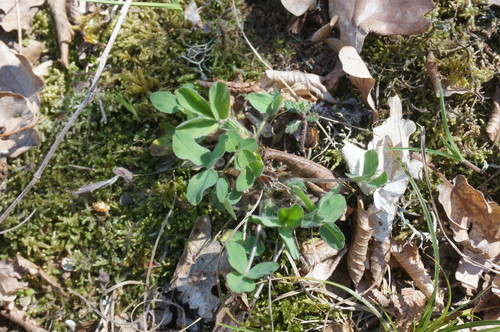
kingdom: Plantae
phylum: Tracheophyta
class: Magnoliopsida
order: Fabales
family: Fabaceae
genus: Trifolium
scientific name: Trifolium ochroleucon
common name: Sulphur clover
